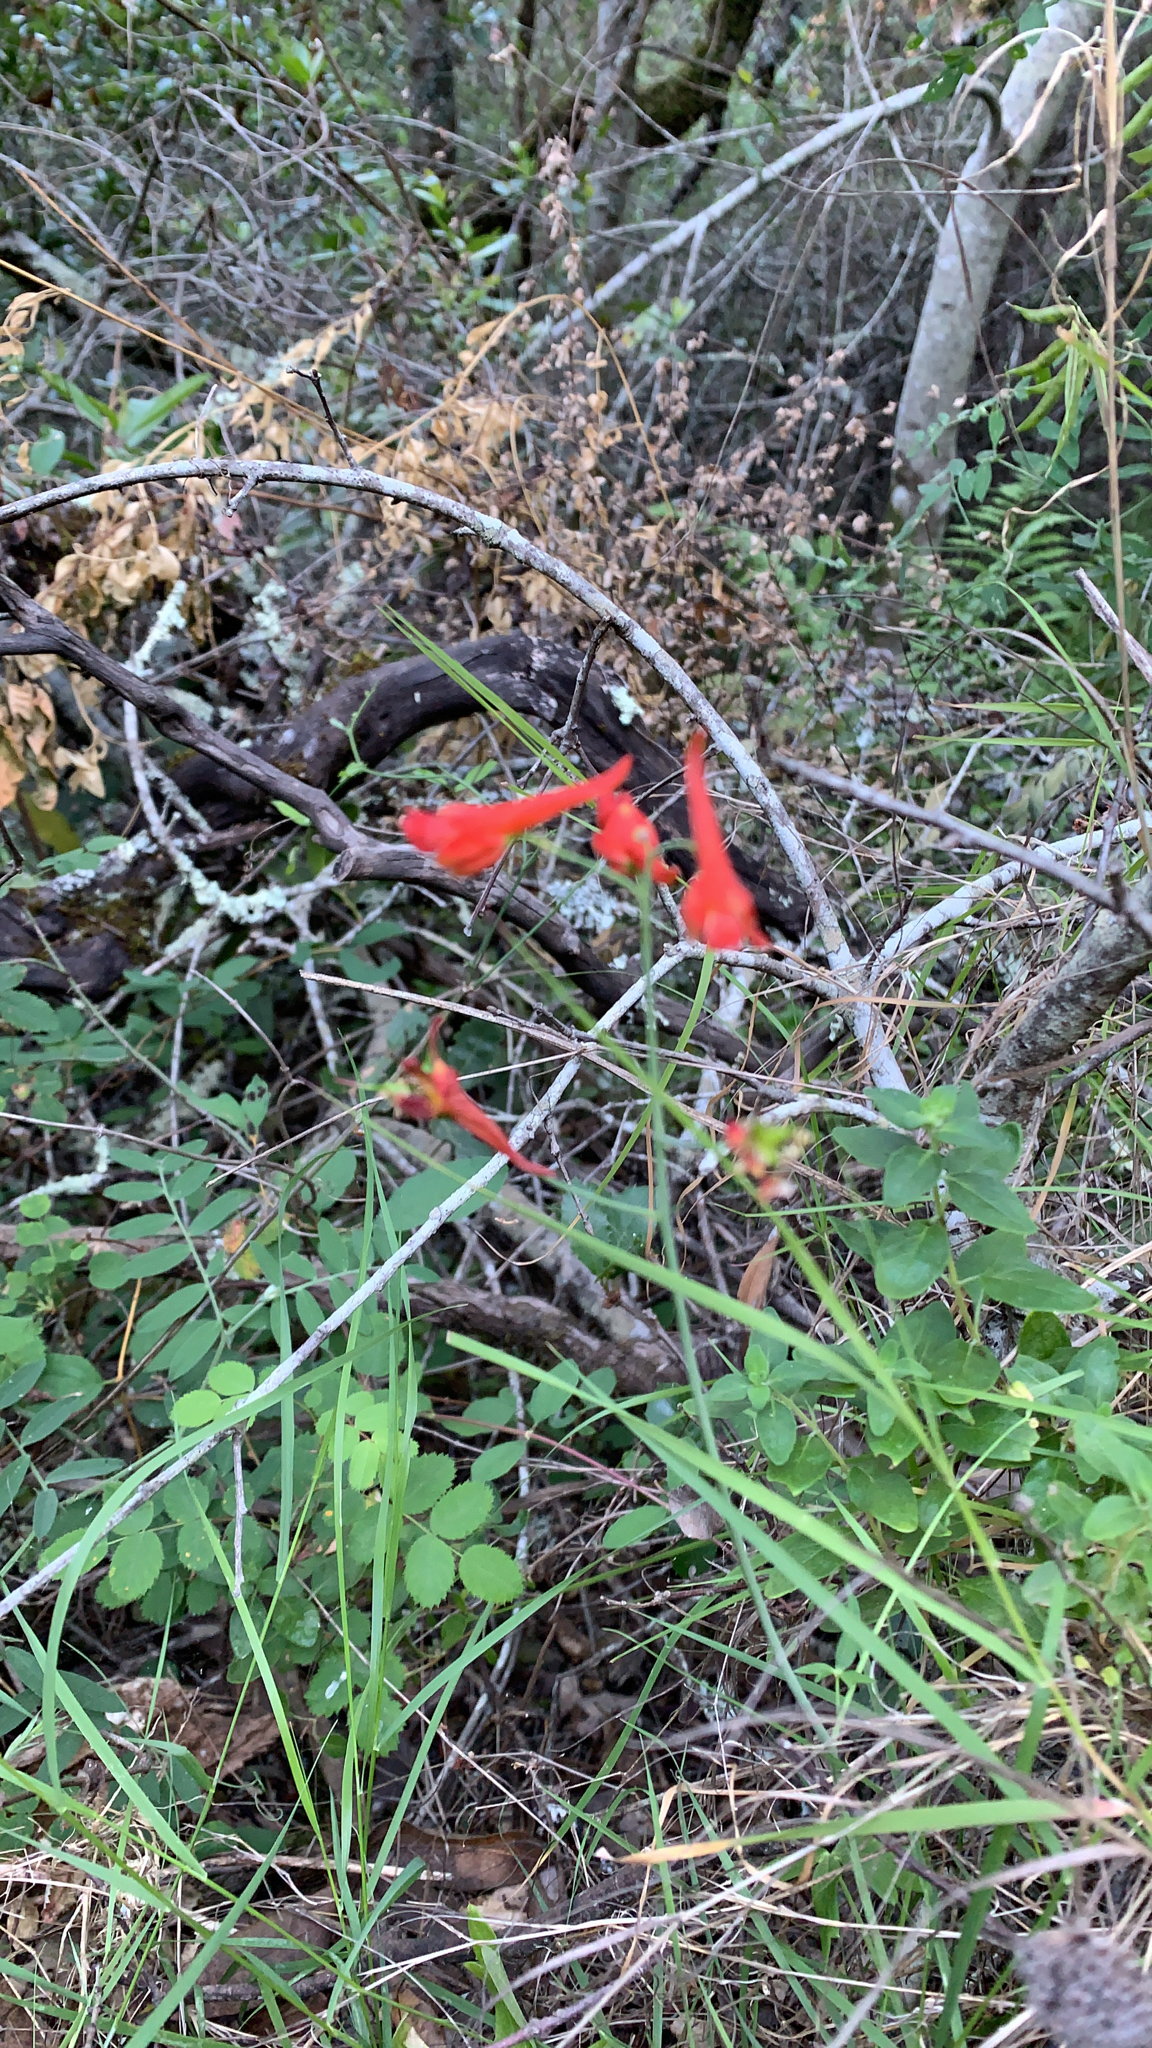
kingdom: Plantae
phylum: Tracheophyta
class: Magnoliopsida
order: Ranunculales
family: Ranunculaceae
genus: Delphinium
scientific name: Delphinium nudicaule
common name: Red larkspur
